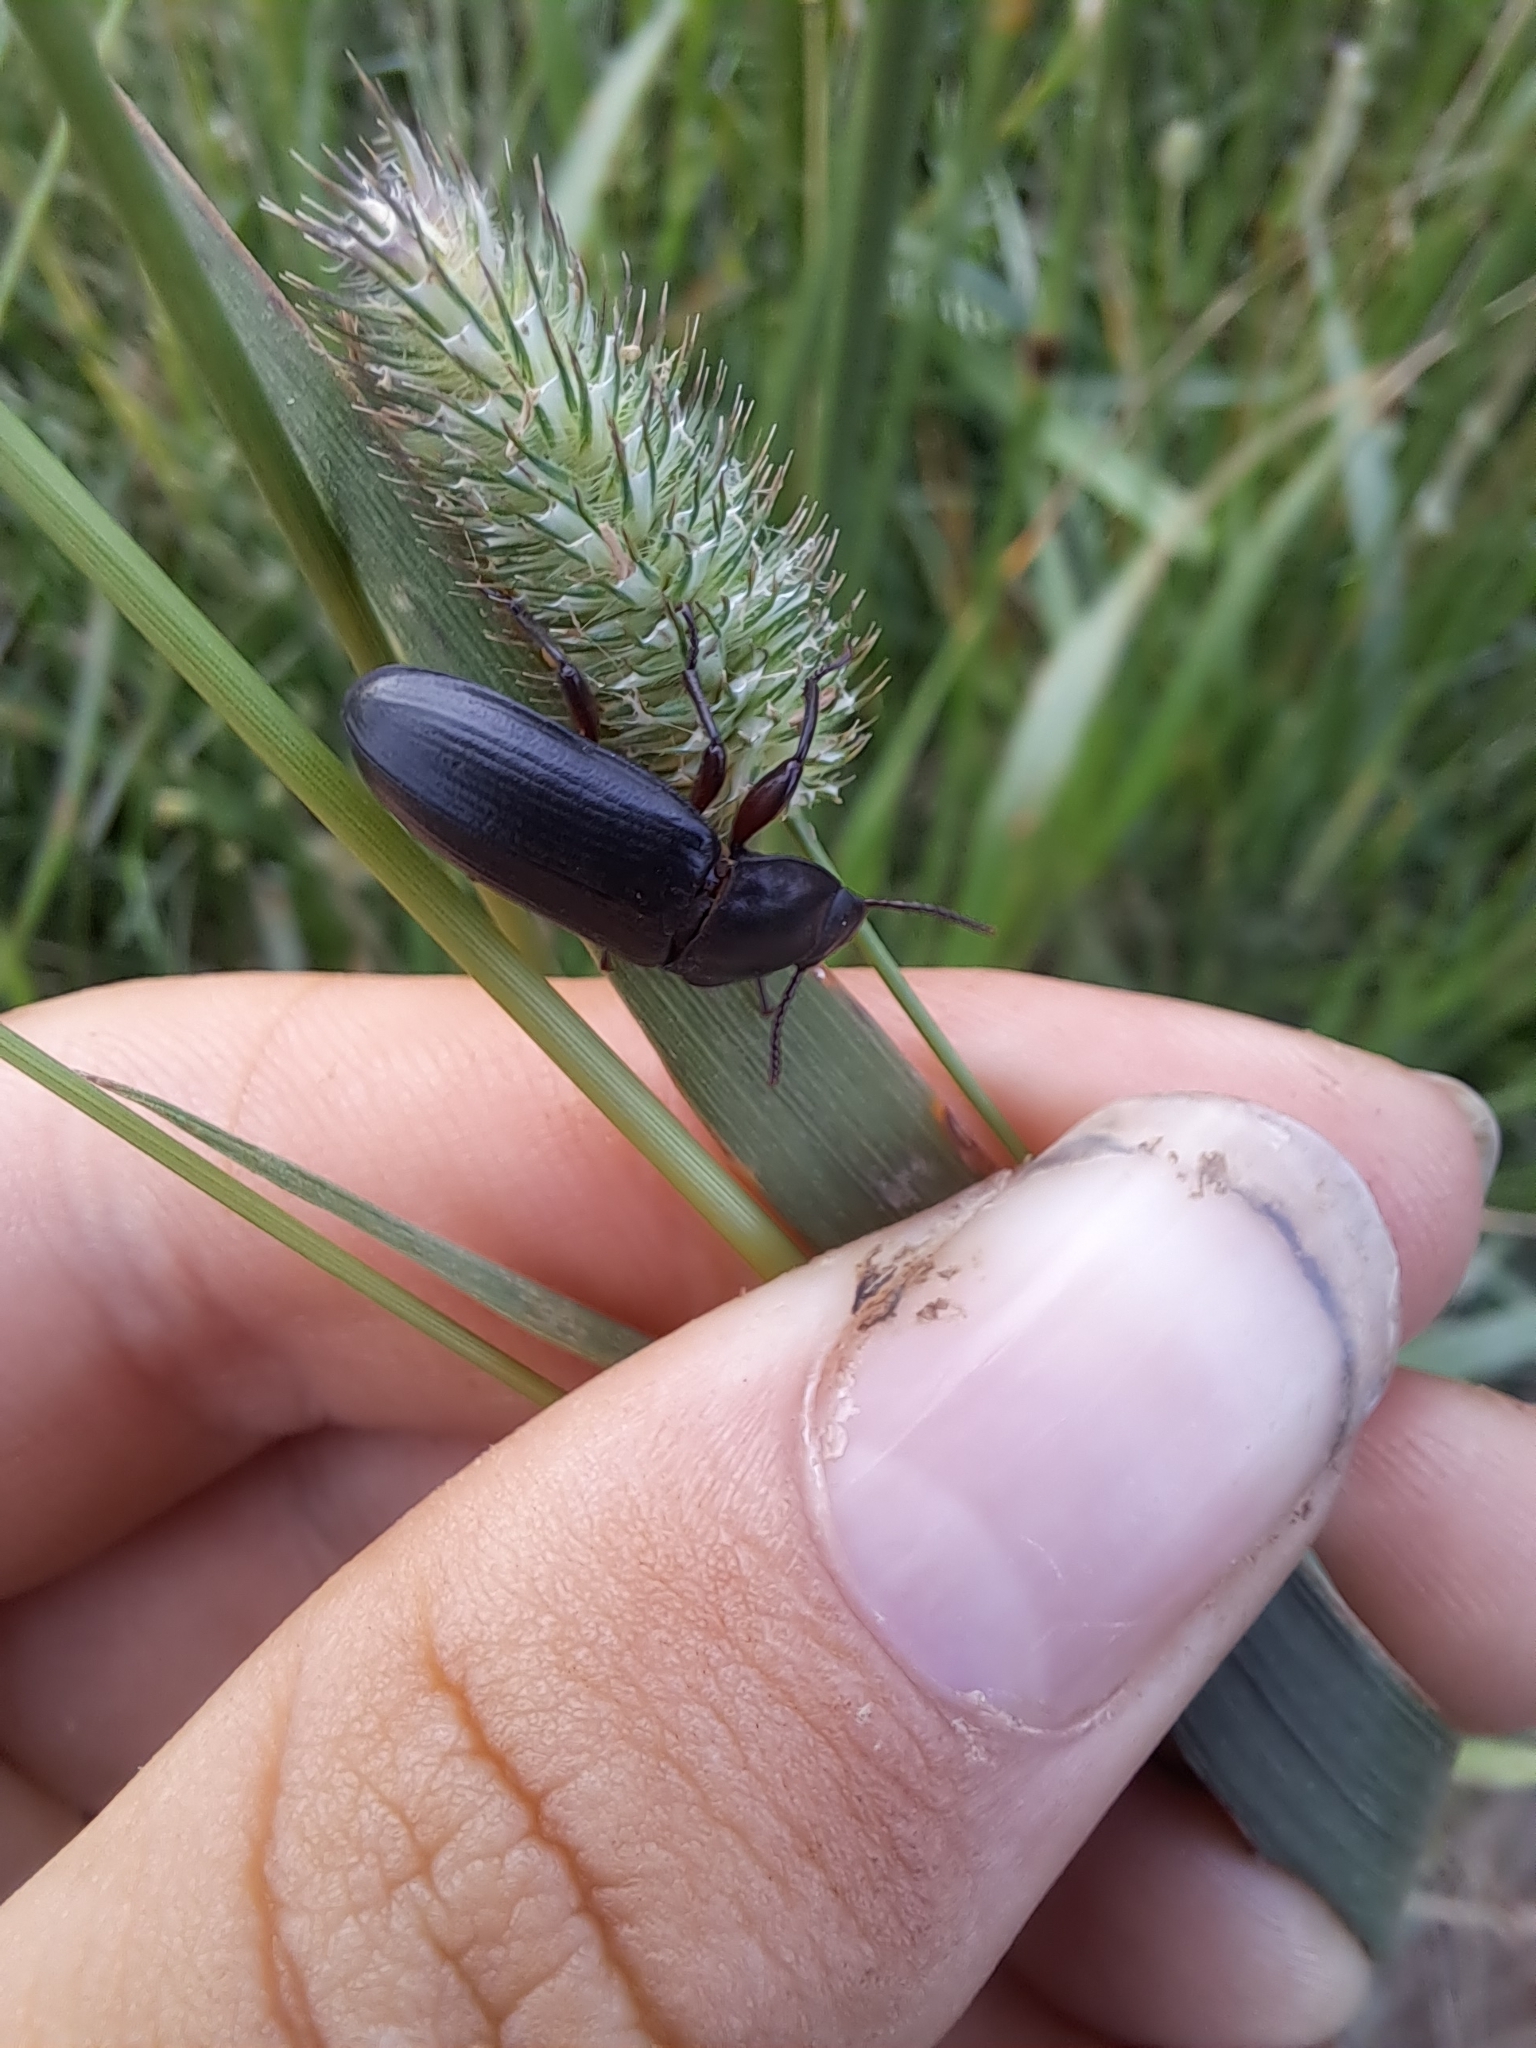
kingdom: Animalia
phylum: Arthropoda
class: Insecta
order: Coleoptera
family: Tenebrionidae
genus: Tenebrio
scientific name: Tenebrio molitor
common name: Hardback beetle
